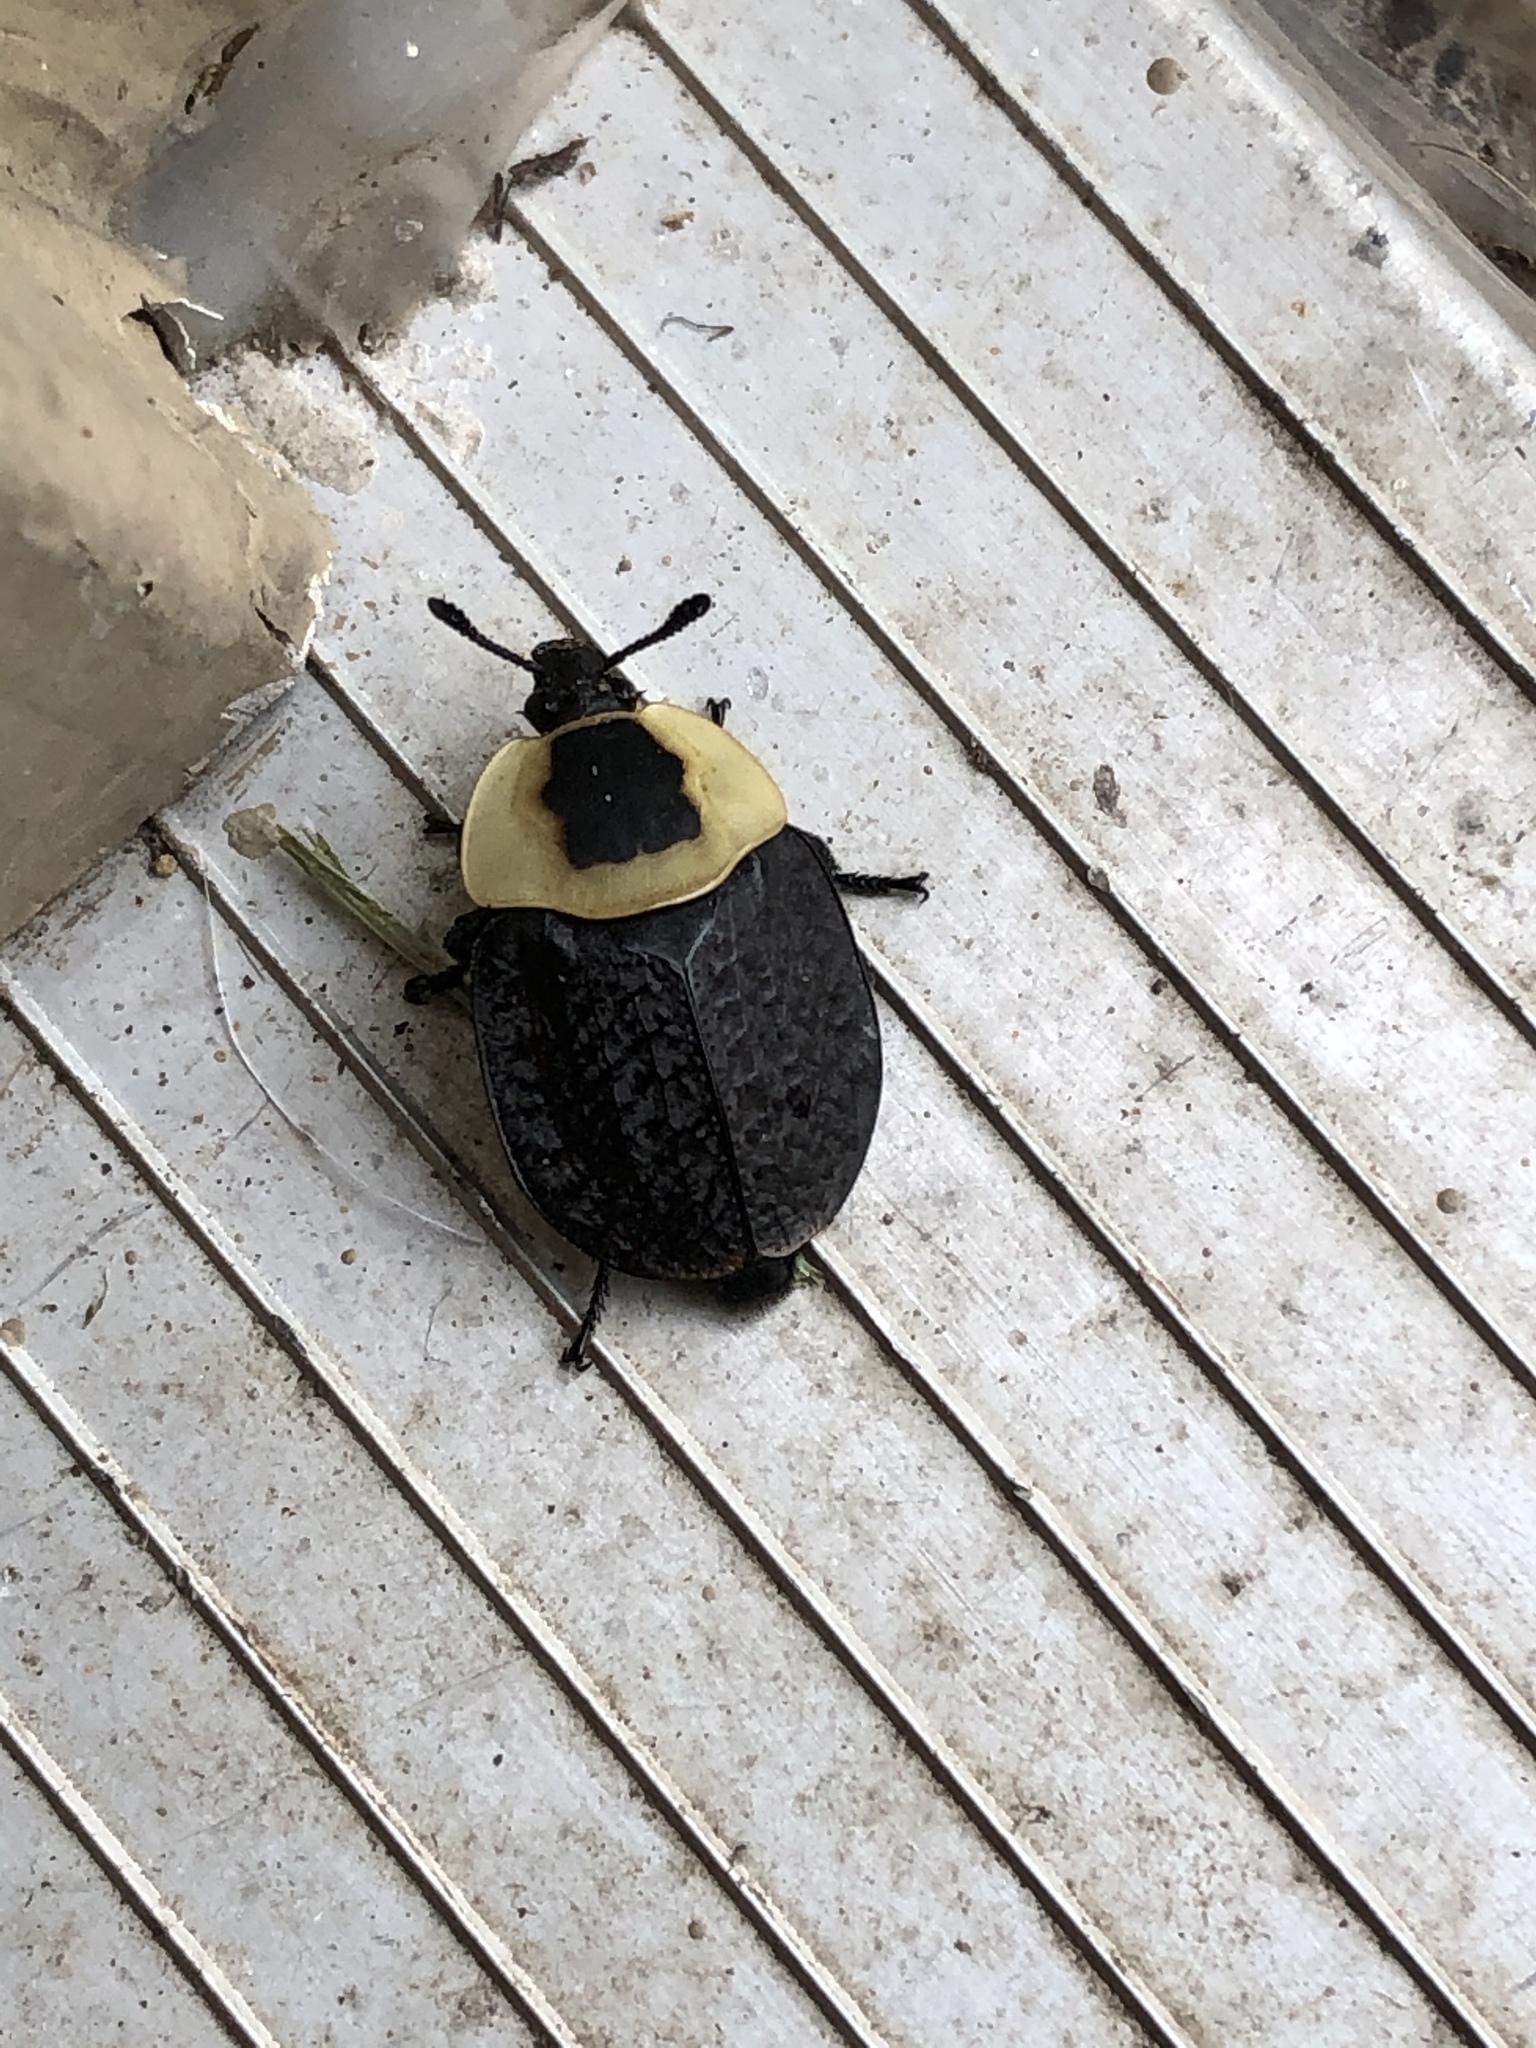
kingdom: Animalia
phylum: Arthropoda
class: Insecta
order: Coleoptera
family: Staphylinidae
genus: Necrophila
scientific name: Necrophila americana
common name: American carrion beetle
